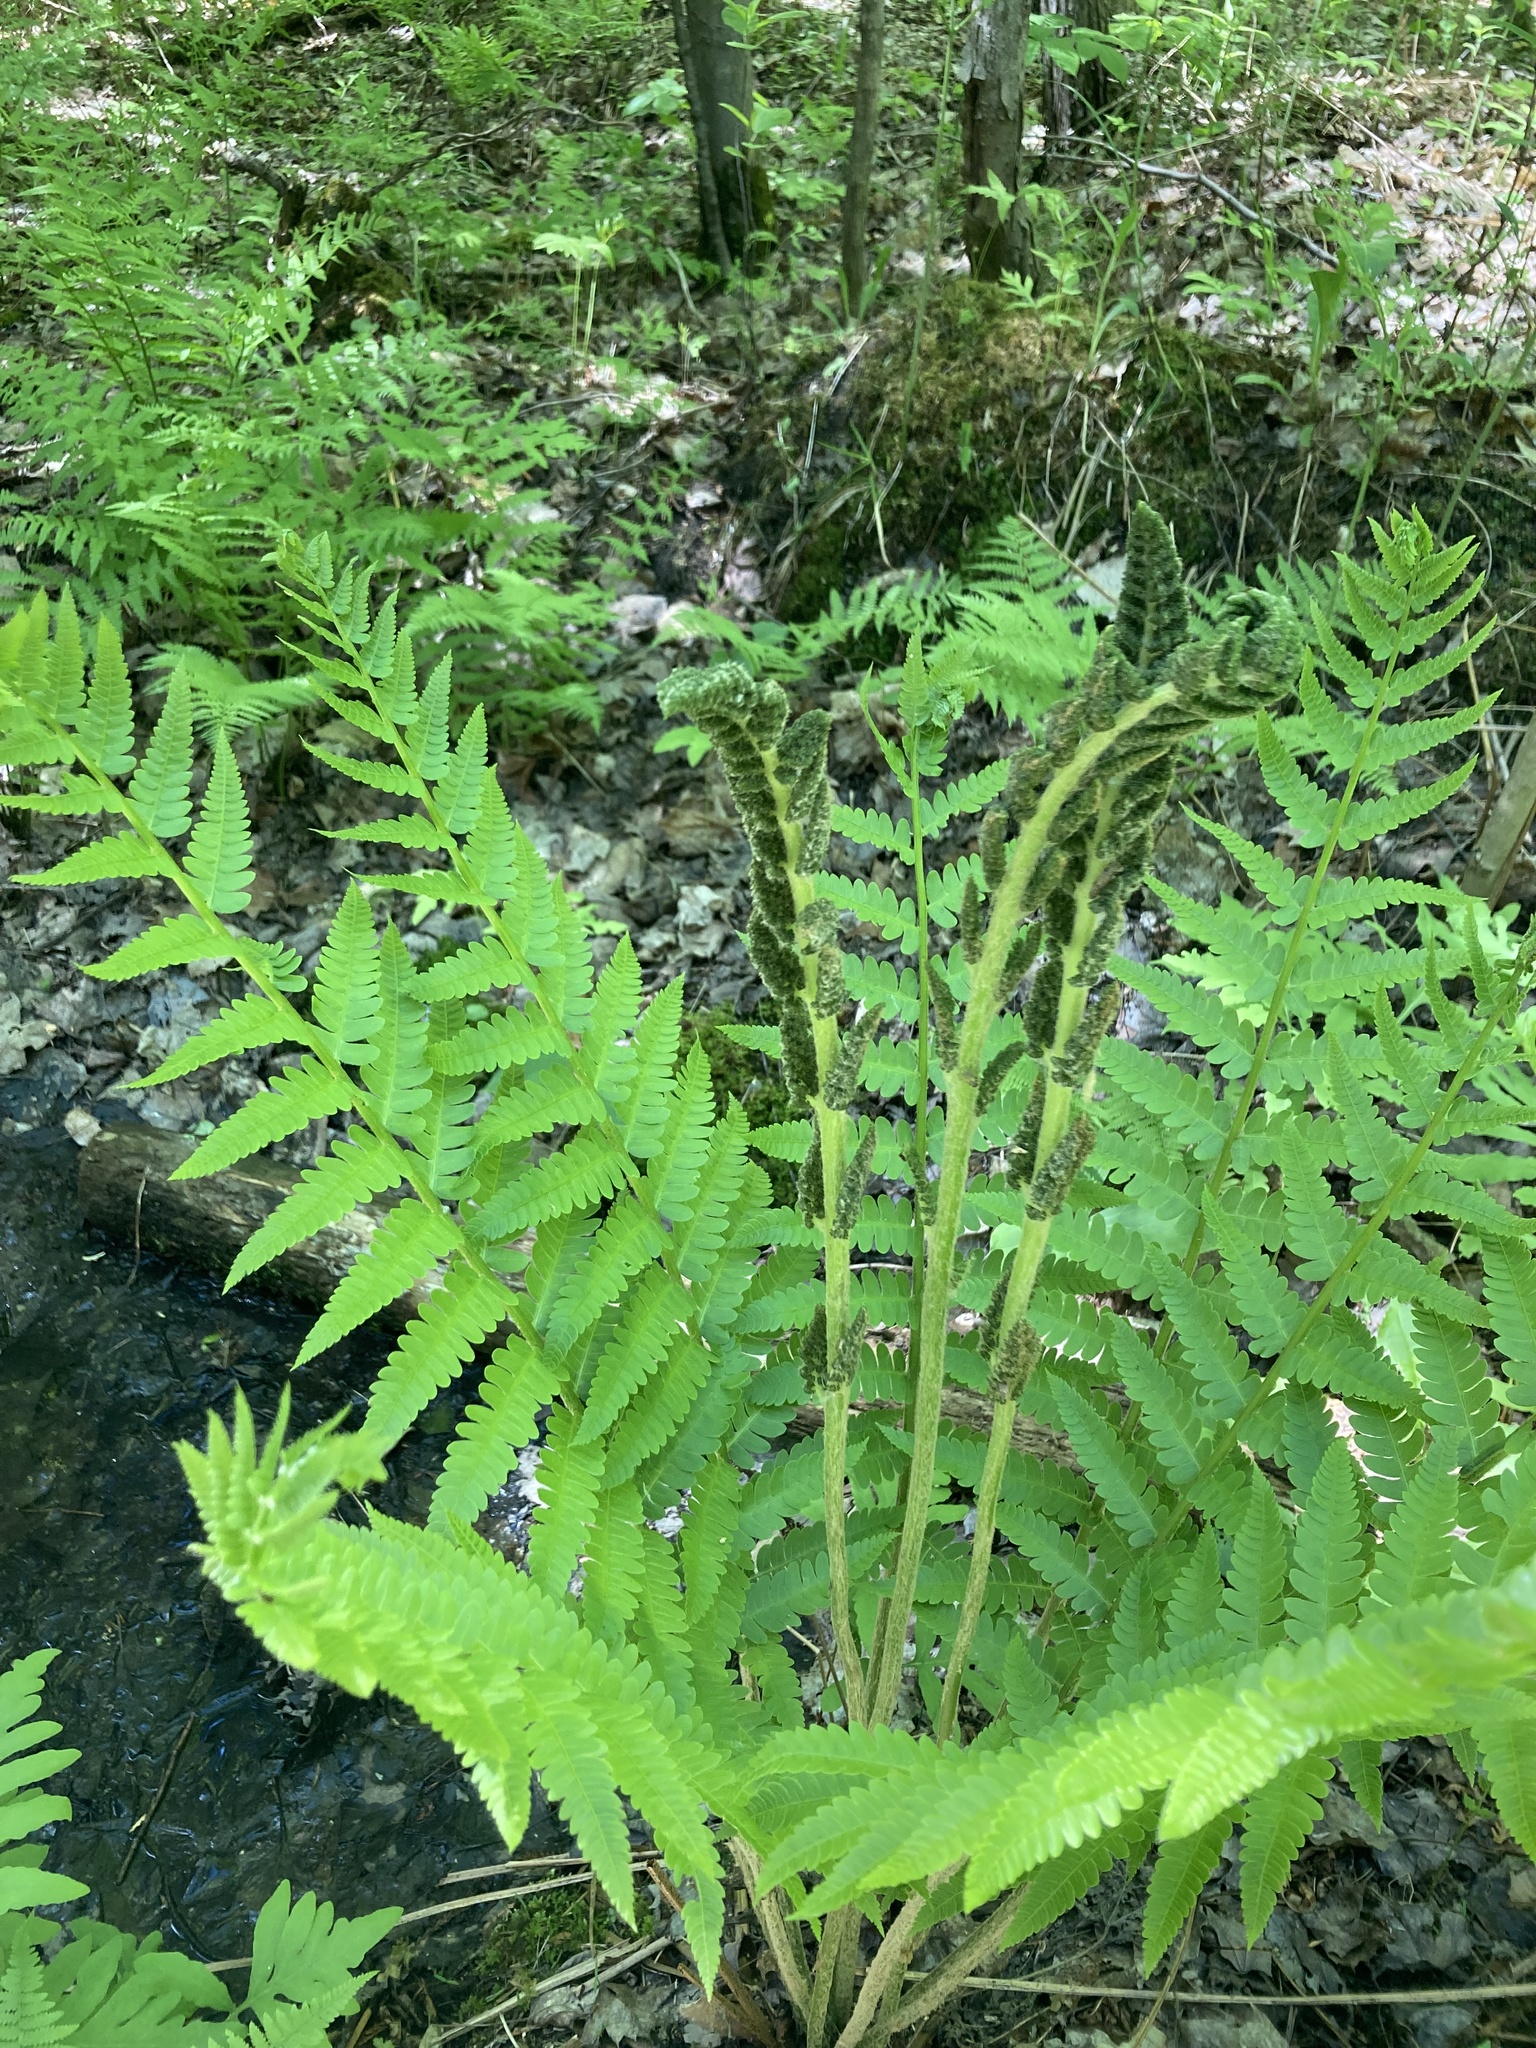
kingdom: Plantae
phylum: Tracheophyta
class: Polypodiopsida
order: Osmundales
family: Osmundaceae
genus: Osmundastrum
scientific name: Osmundastrum cinnamomeum
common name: Cinnamon fern
